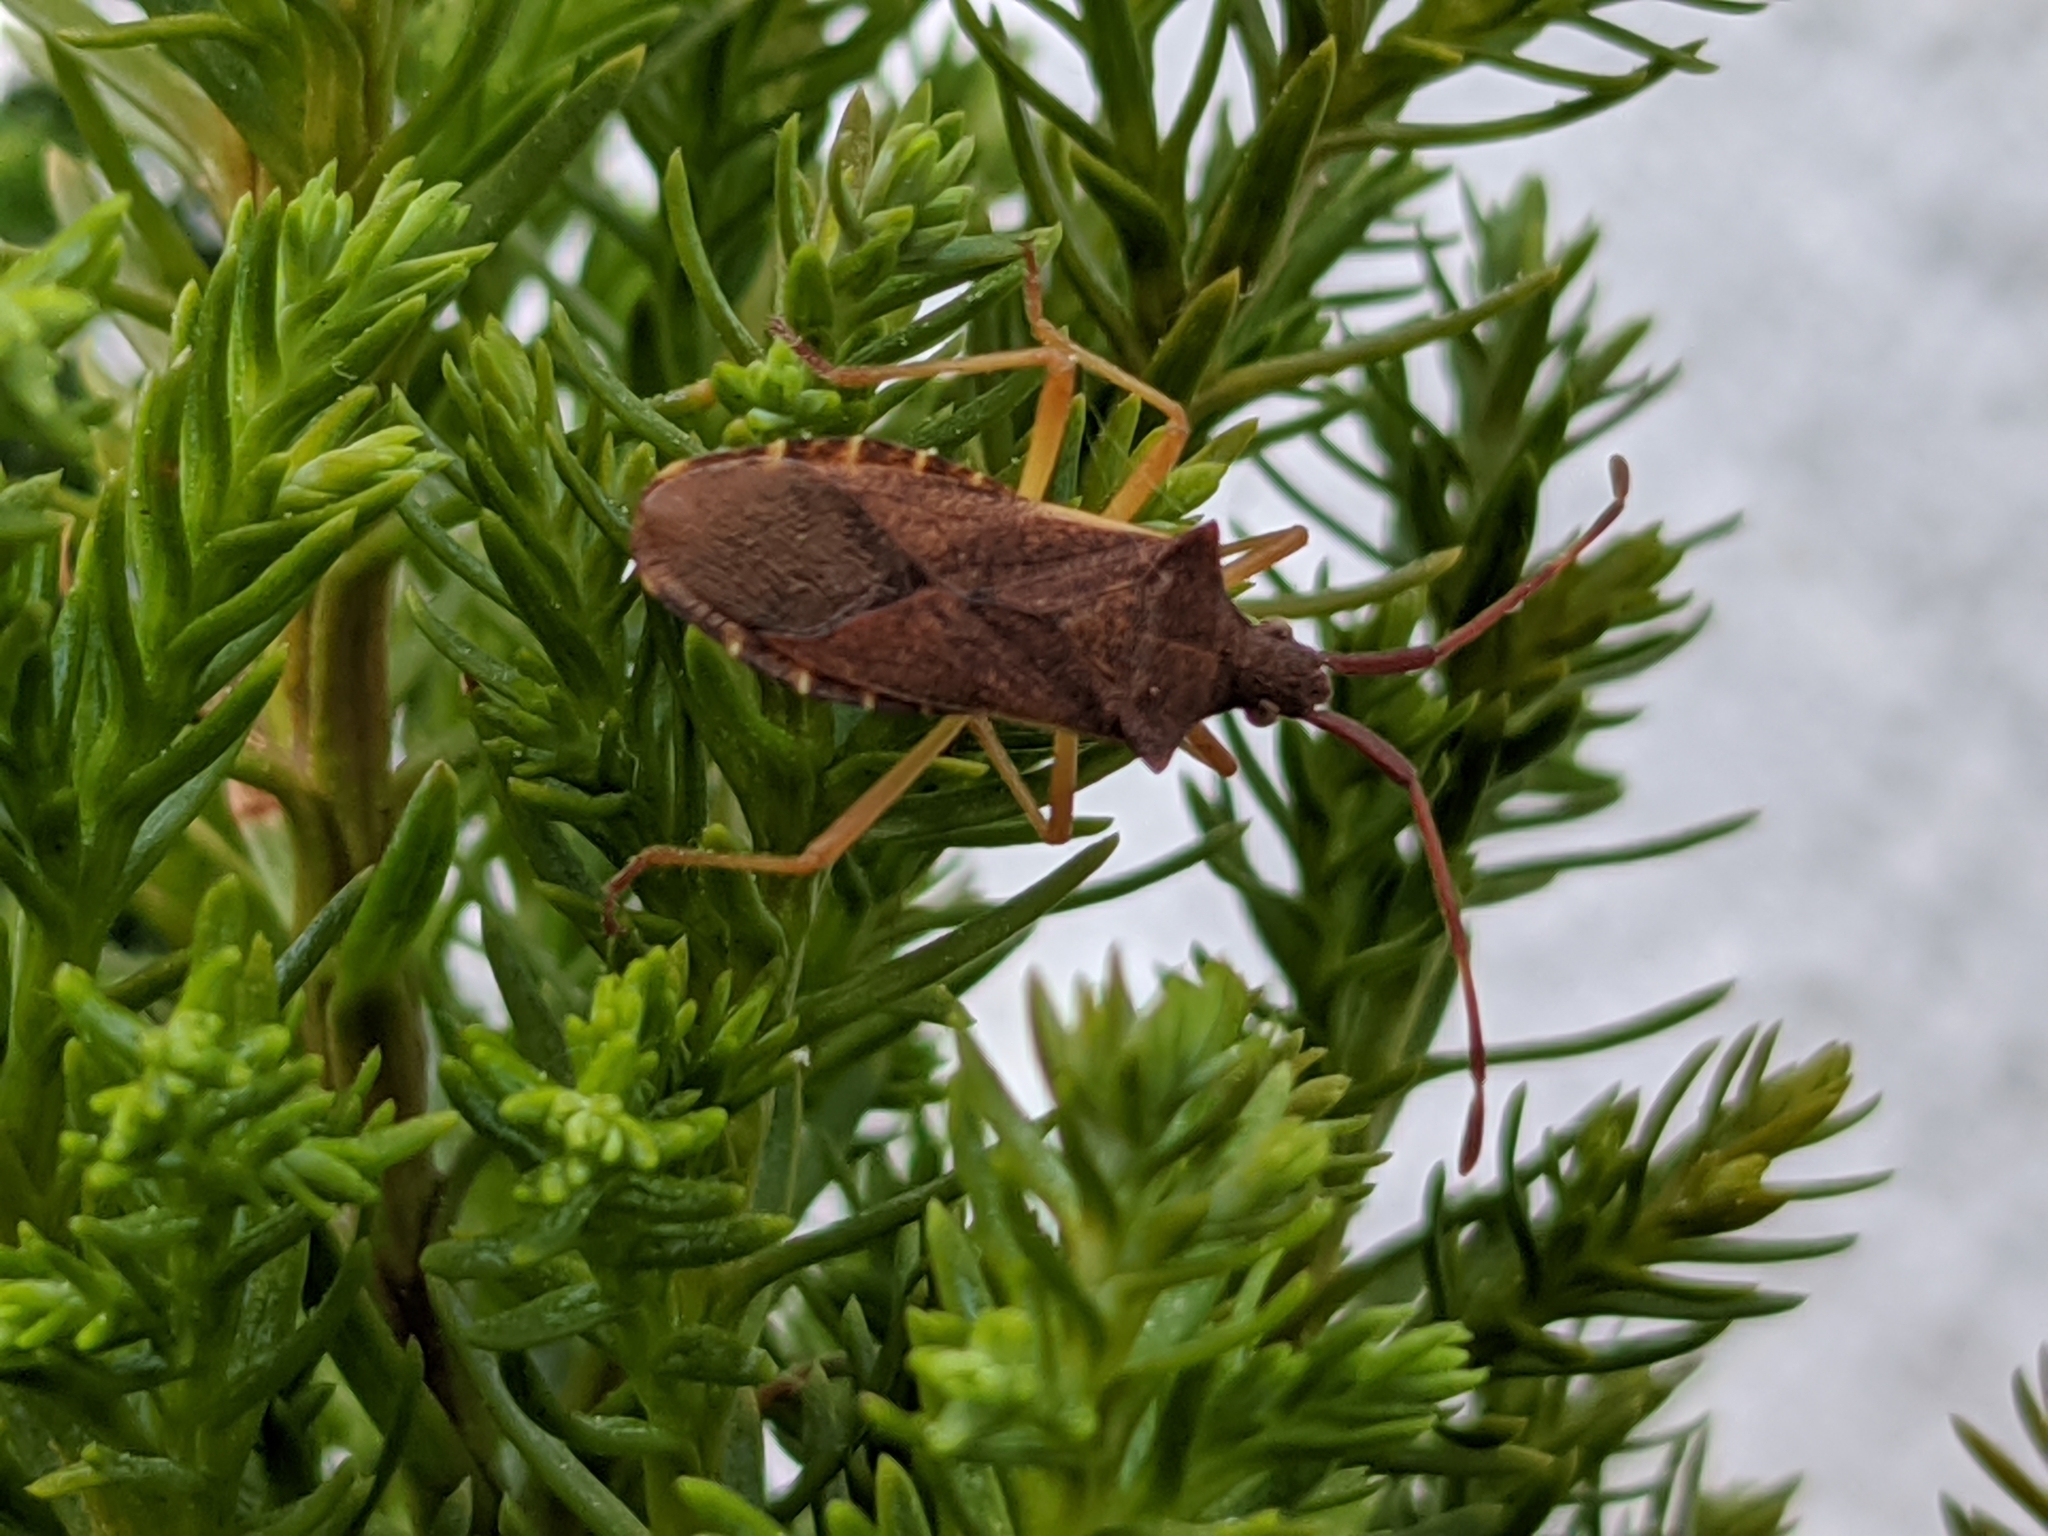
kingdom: Animalia
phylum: Arthropoda
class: Insecta
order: Hemiptera
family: Coreidae
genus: Gonocerus
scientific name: Gonocerus acuteangulatus
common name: Box bug
